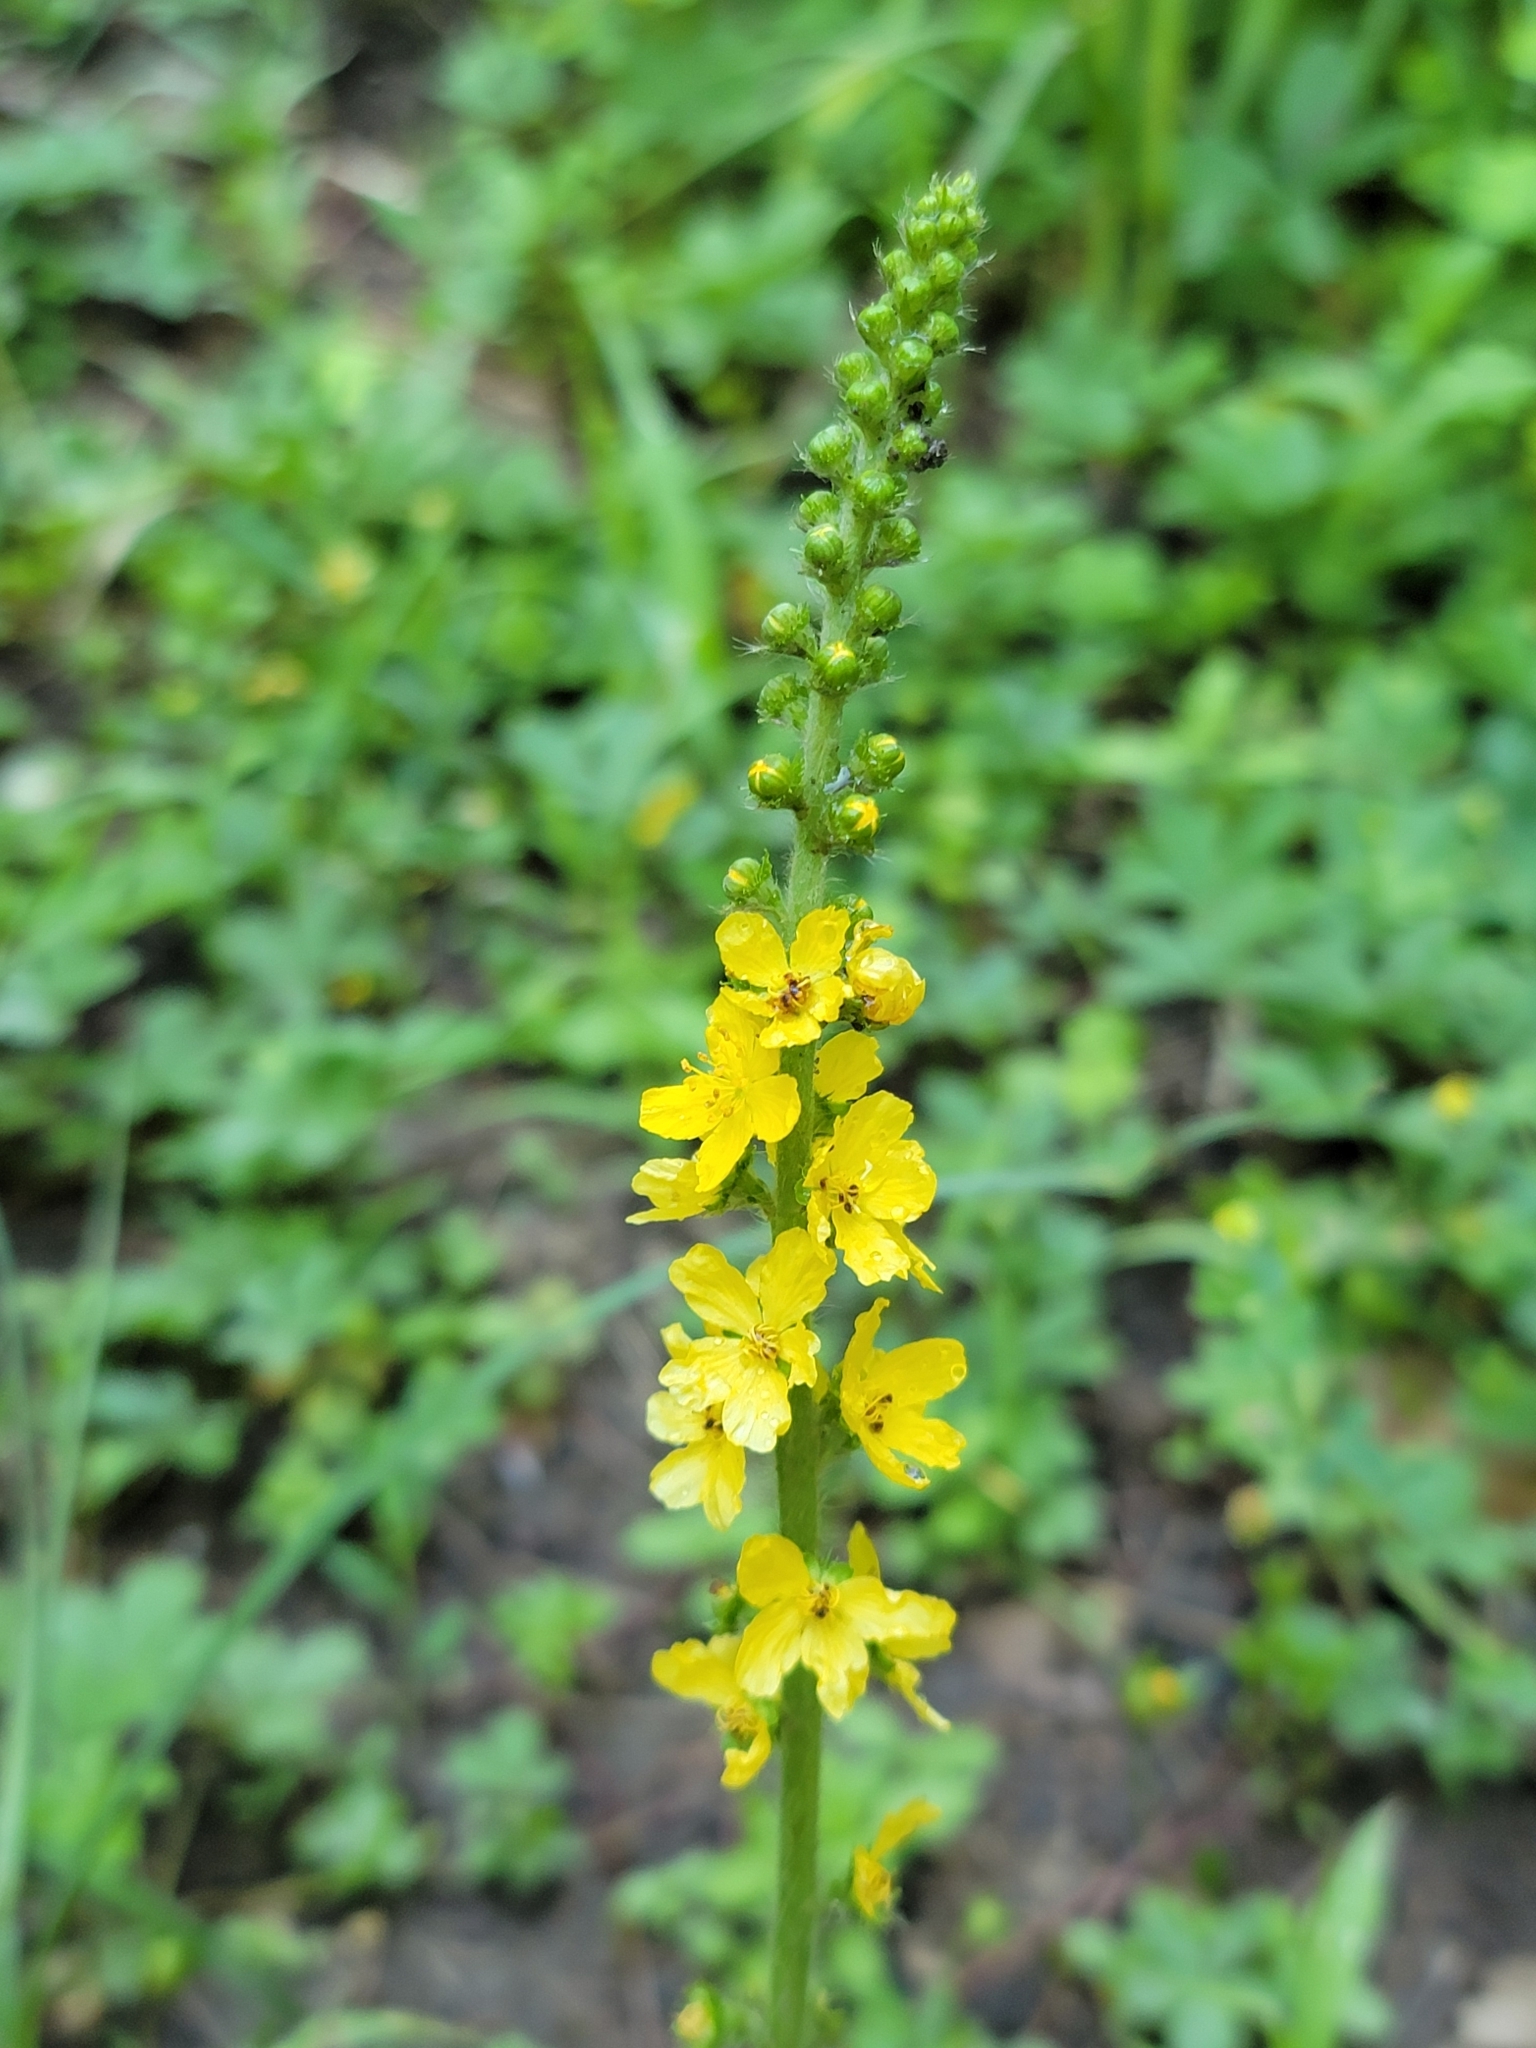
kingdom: Plantae
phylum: Tracheophyta
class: Magnoliopsida
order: Rosales
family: Rosaceae
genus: Agrimonia
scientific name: Agrimonia eupatoria
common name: Agrimony
